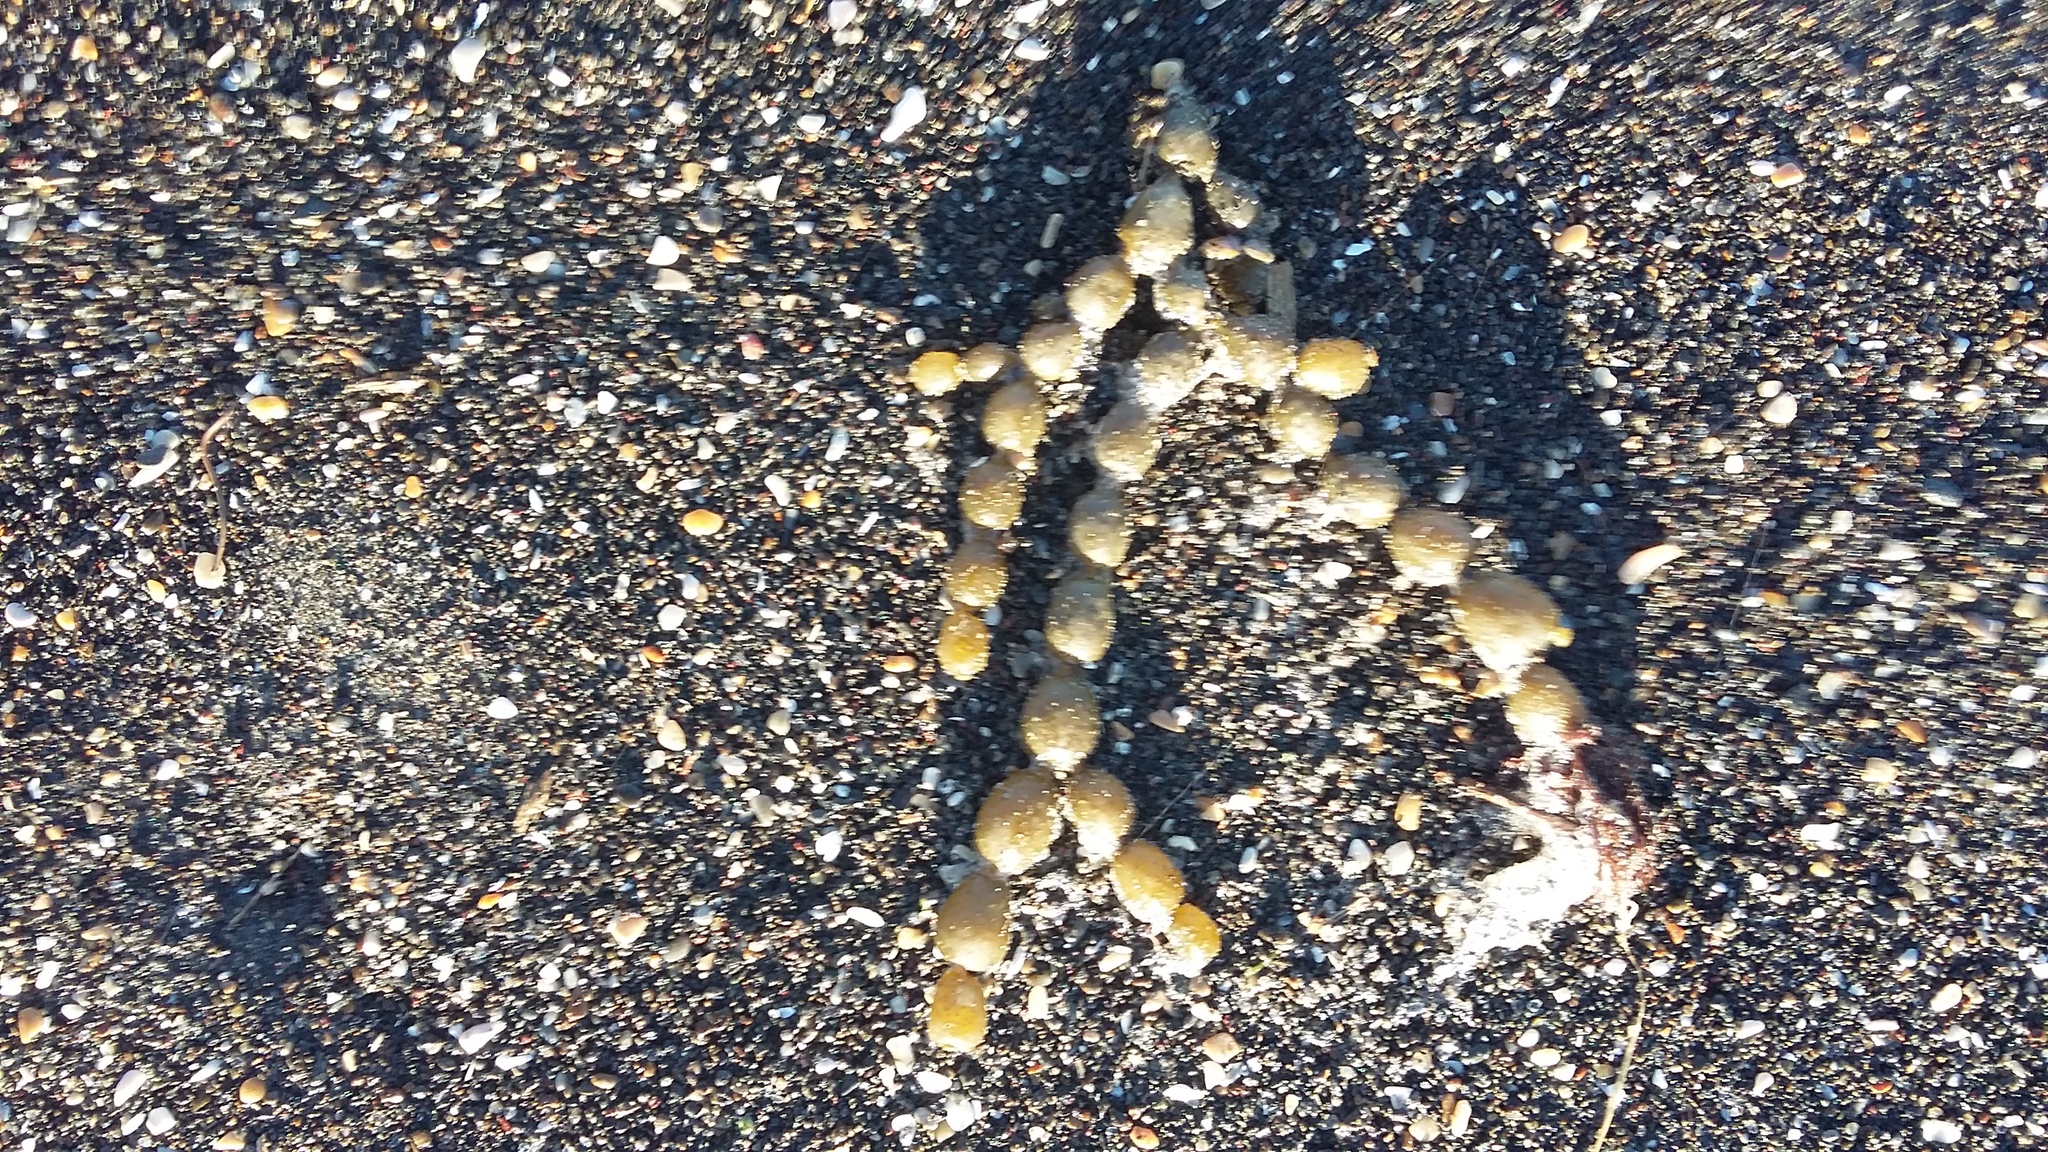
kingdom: Chromista
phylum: Ochrophyta
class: Phaeophyceae
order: Fucales
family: Hormosiraceae
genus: Hormosira
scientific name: Hormosira banksii
